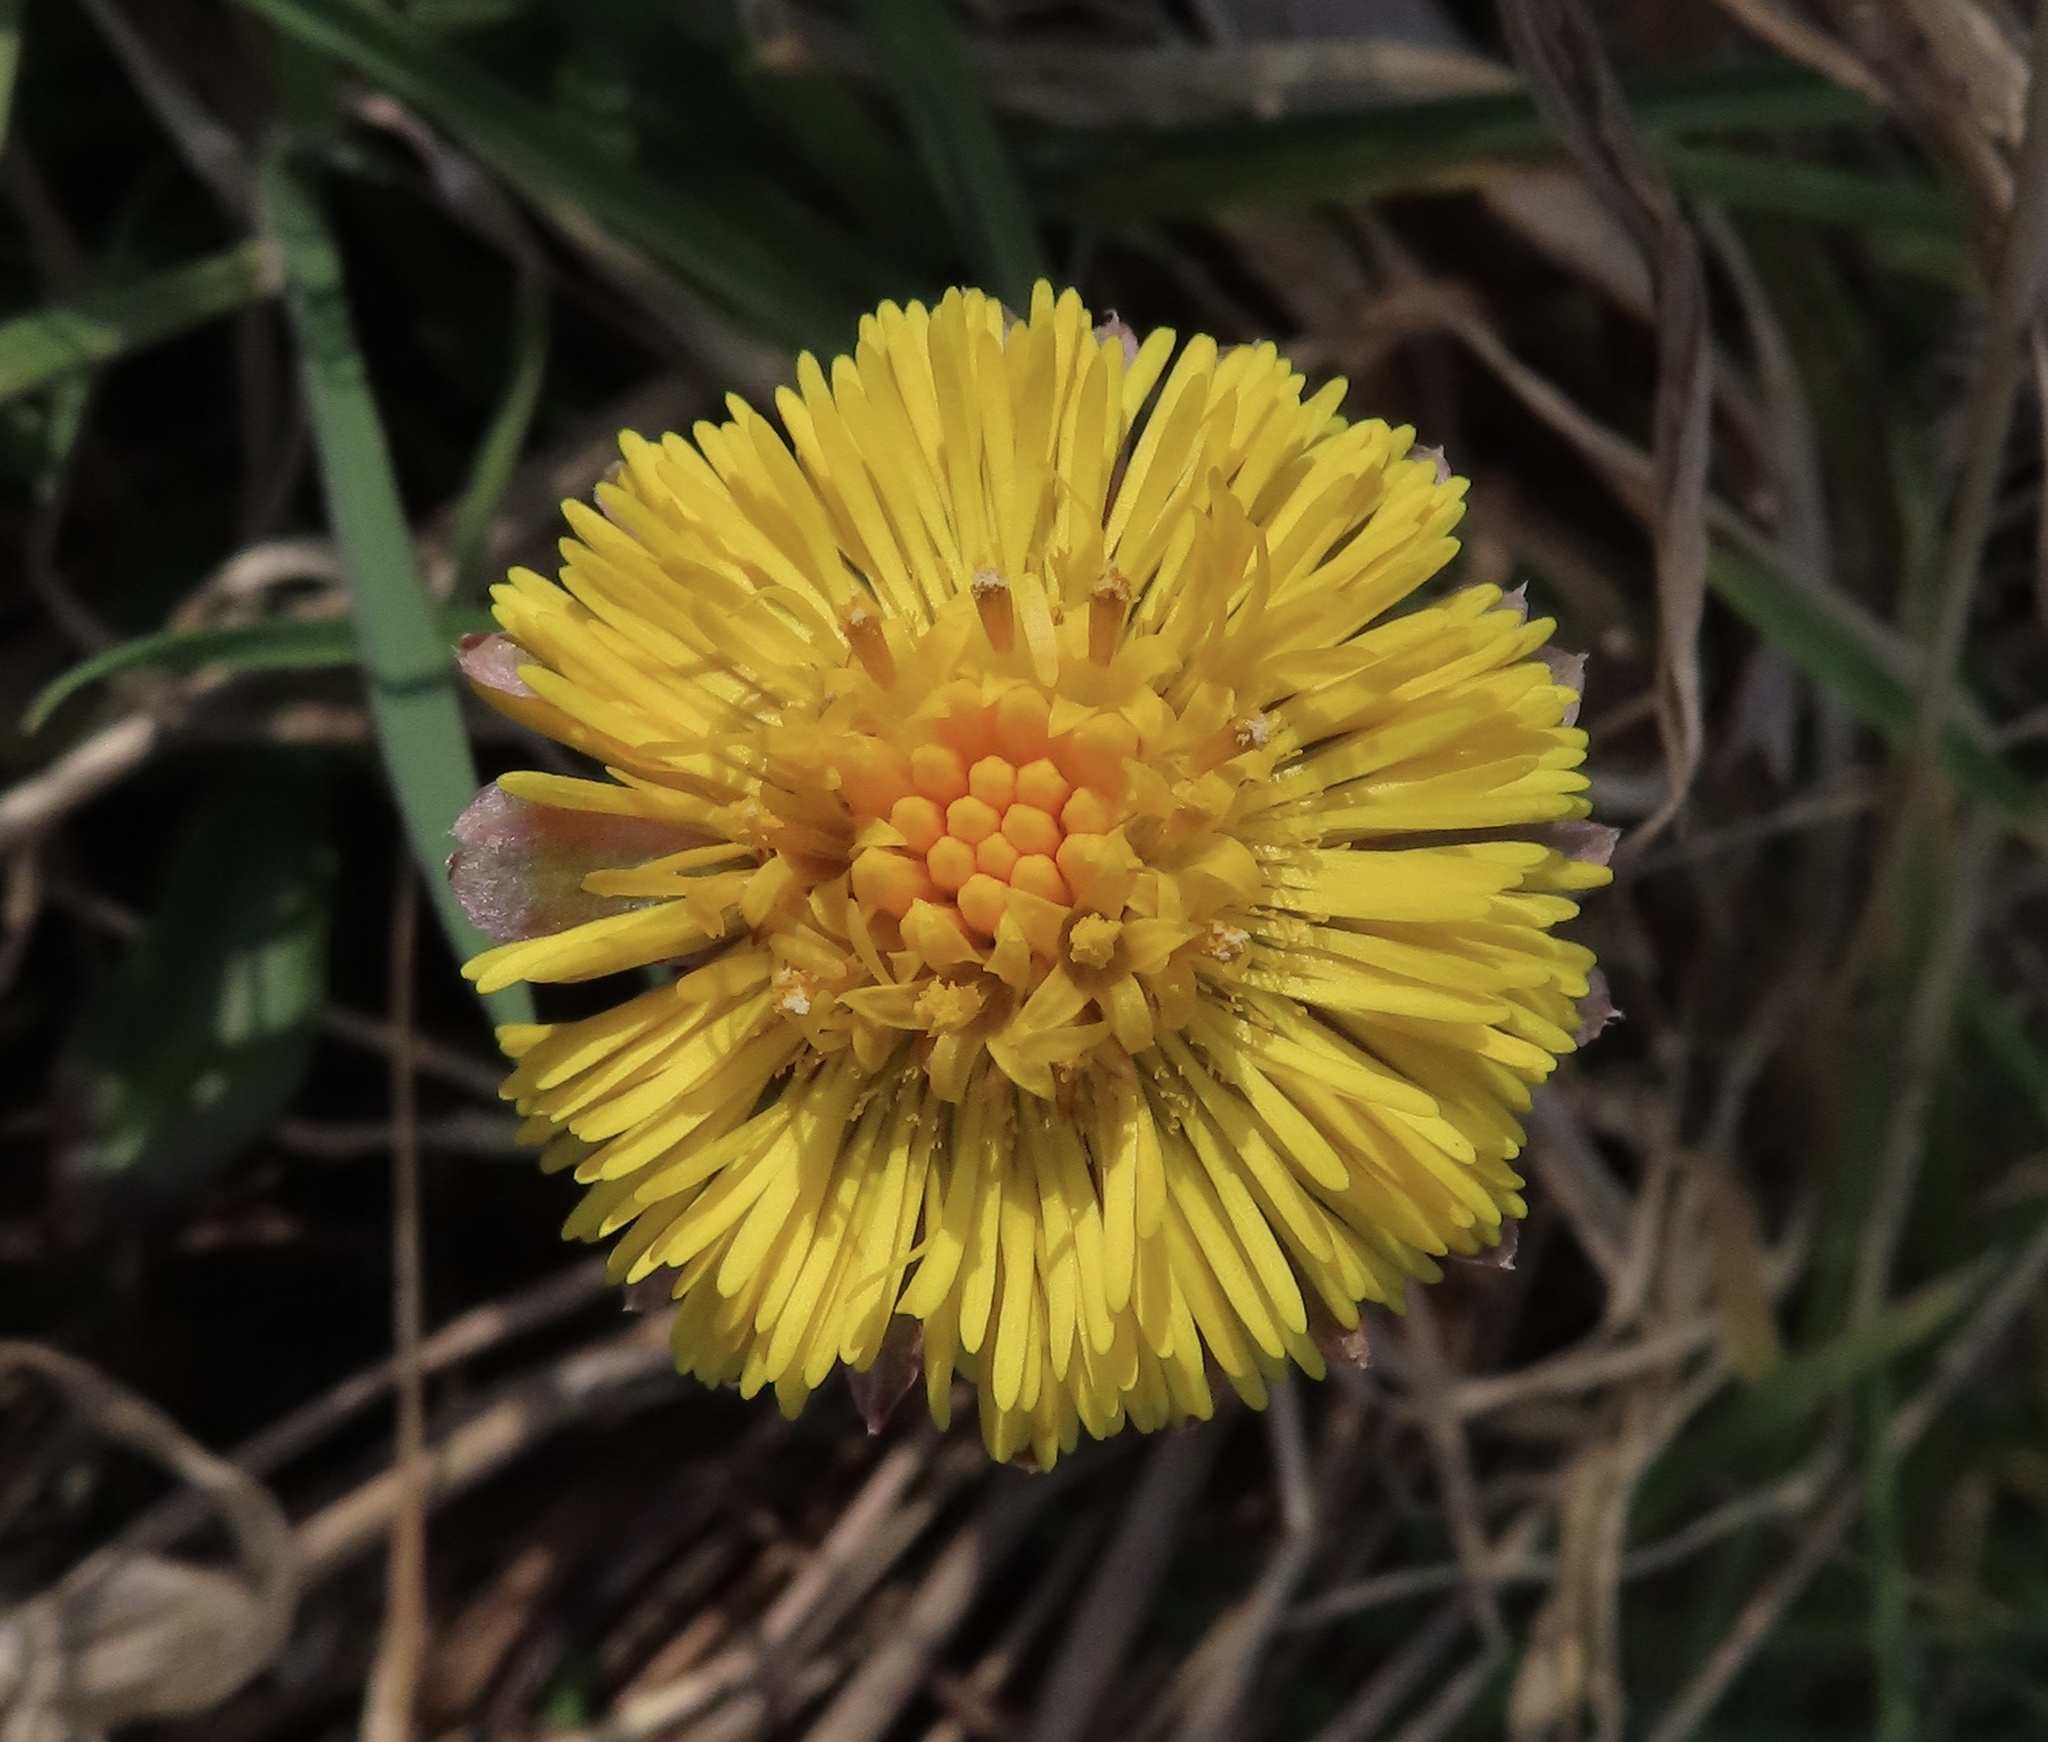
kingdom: Plantae
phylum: Tracheophyta
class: Magnoliopsida
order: Asterales
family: Asteraceae
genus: Tussilago
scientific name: Tussilago farfara
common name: Coltsfoot
